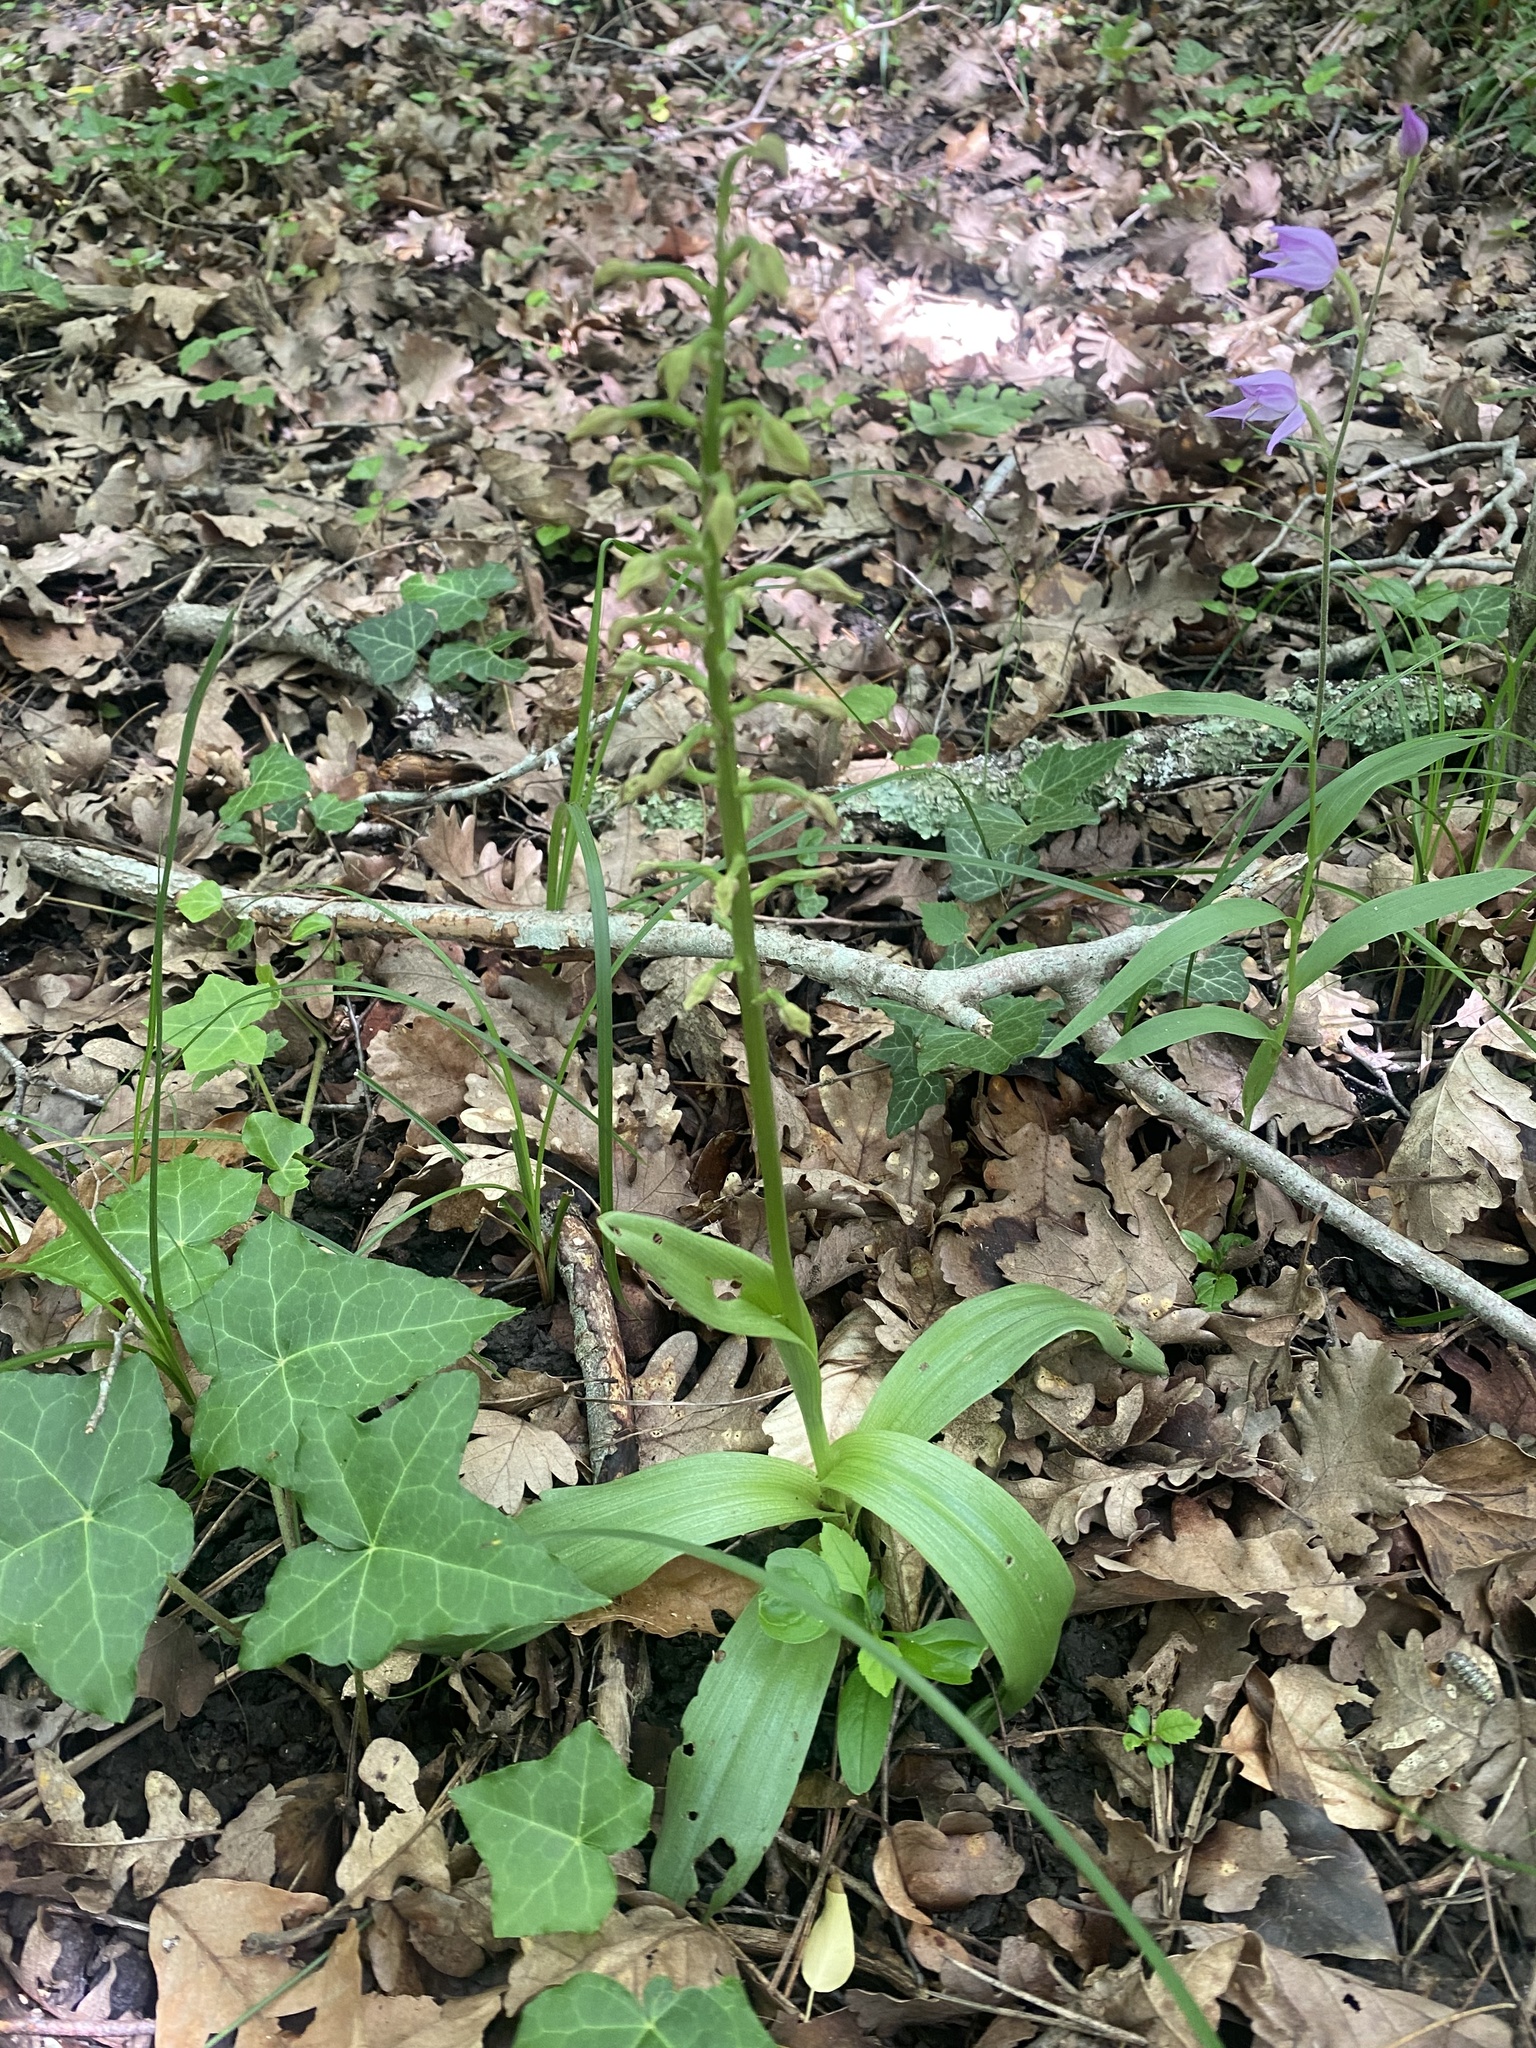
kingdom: Plantae
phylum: Tracheophyta
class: Liliopsida
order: Asparagales
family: Orchidaceae
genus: Orchis
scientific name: Orchis punctulata
